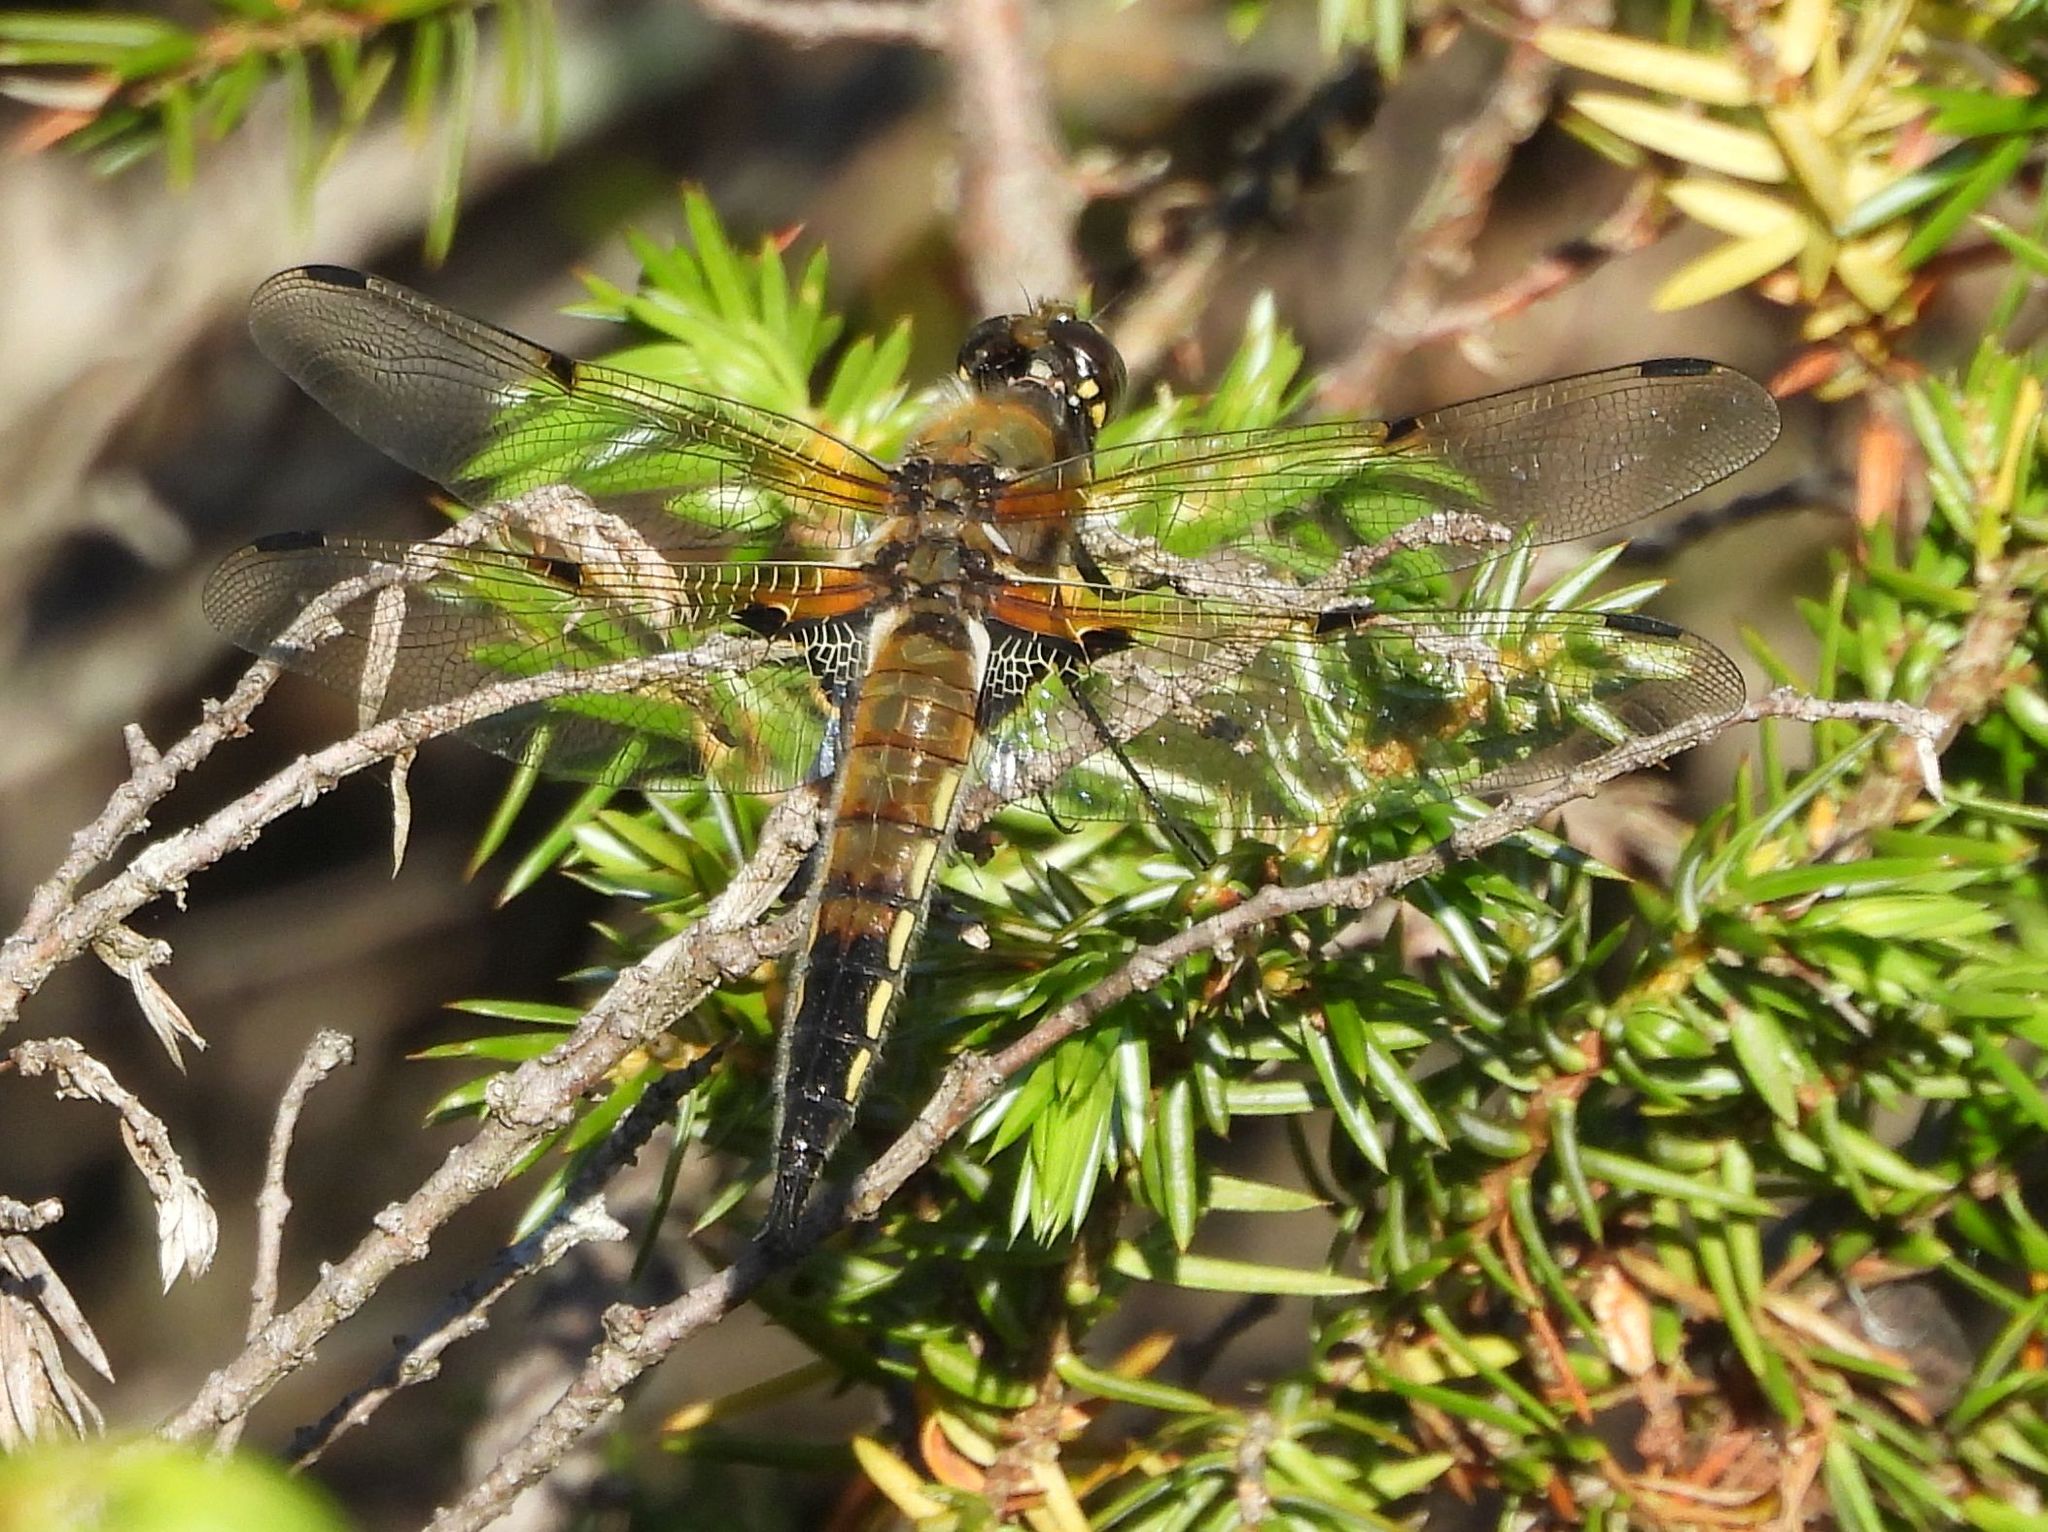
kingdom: Animalia
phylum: Arthropoda
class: Insecta
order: Odonata
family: Libellulidae
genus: Libellula
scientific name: Libellula quadrimaculata
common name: Four-spotted chaser
